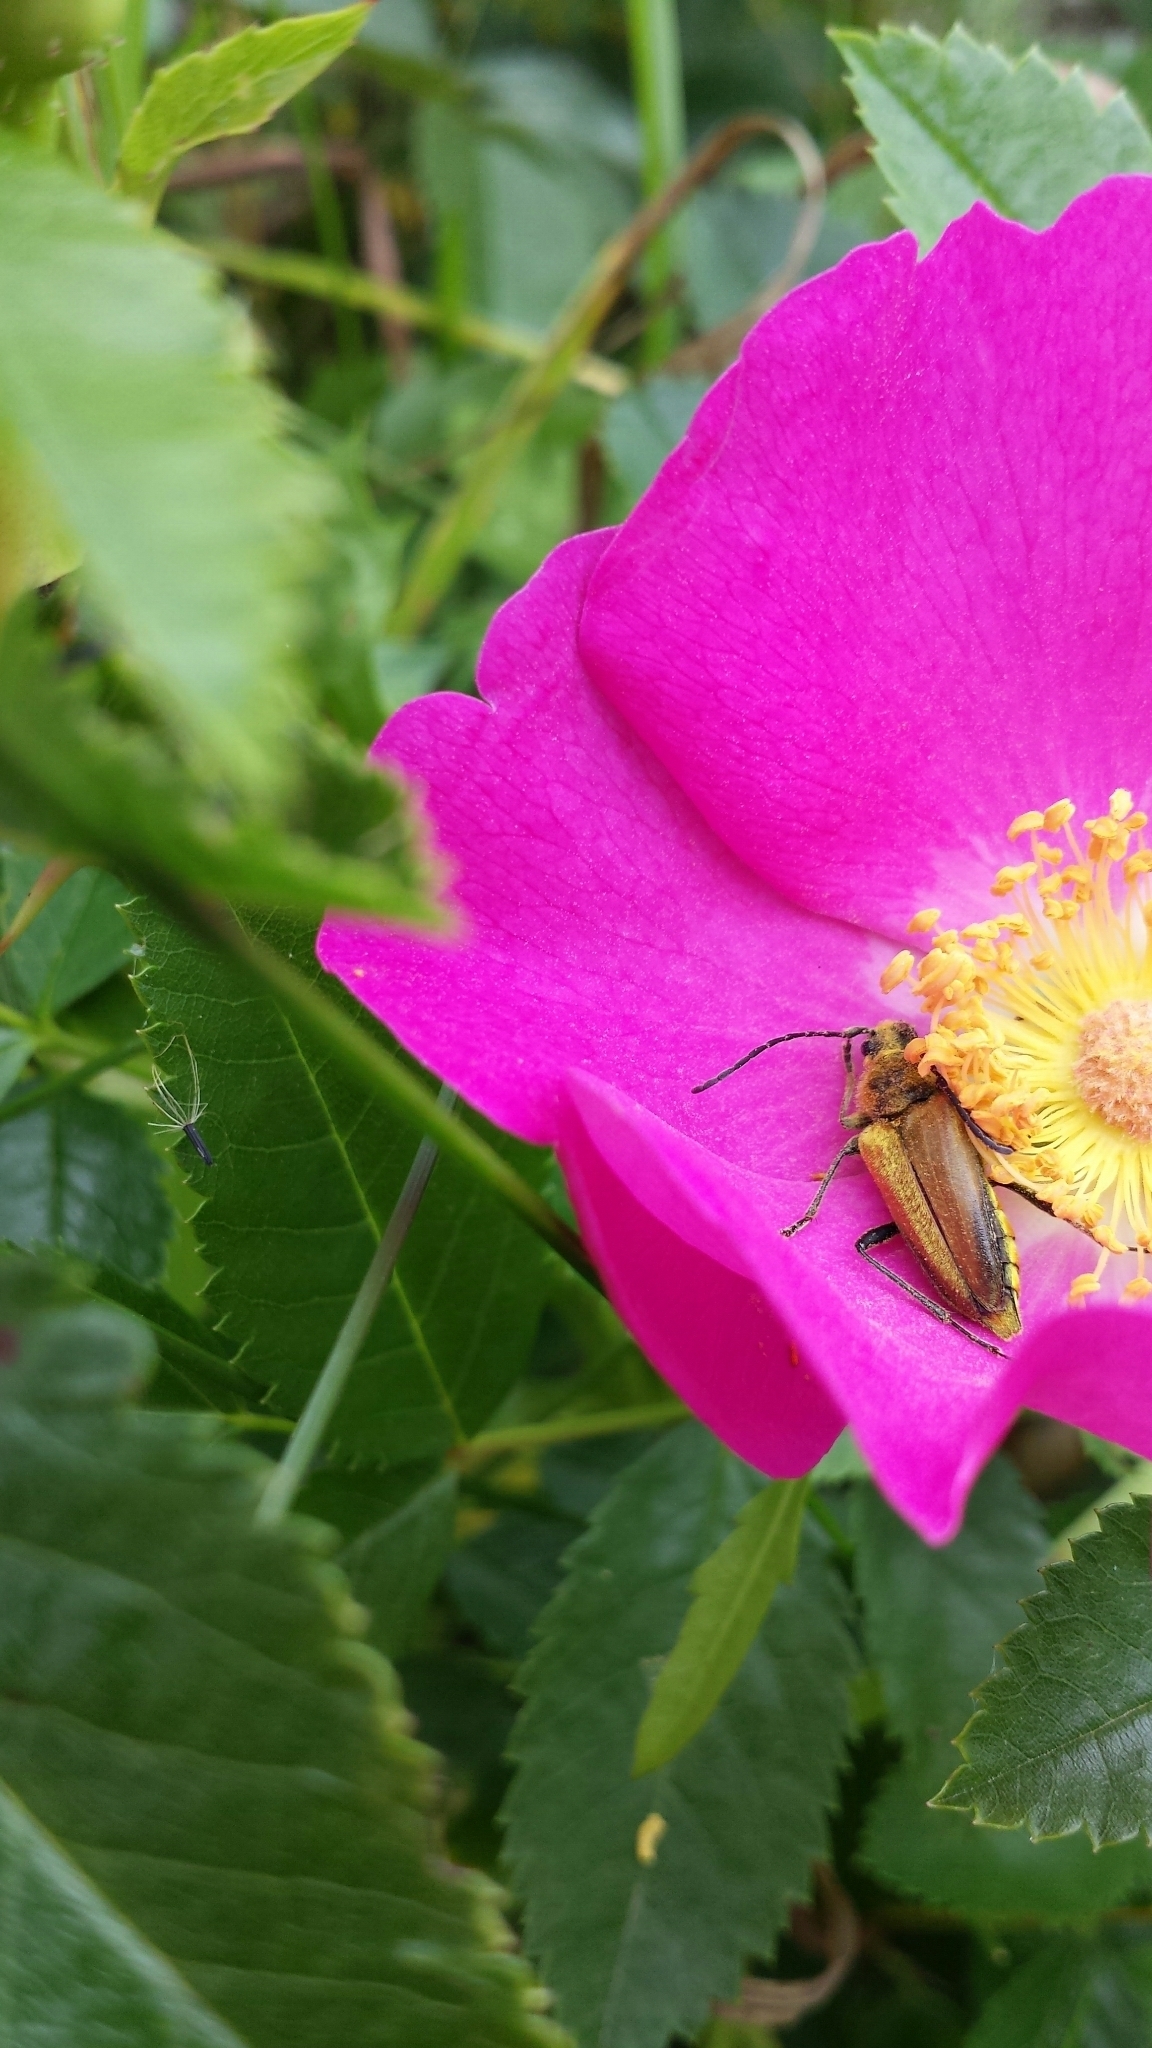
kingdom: Animalia
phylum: Arthropoda
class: Insecta
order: Coleoptera
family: Cerambycidae
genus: Cosmosalia
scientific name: Cosmosalia chrysocoma
